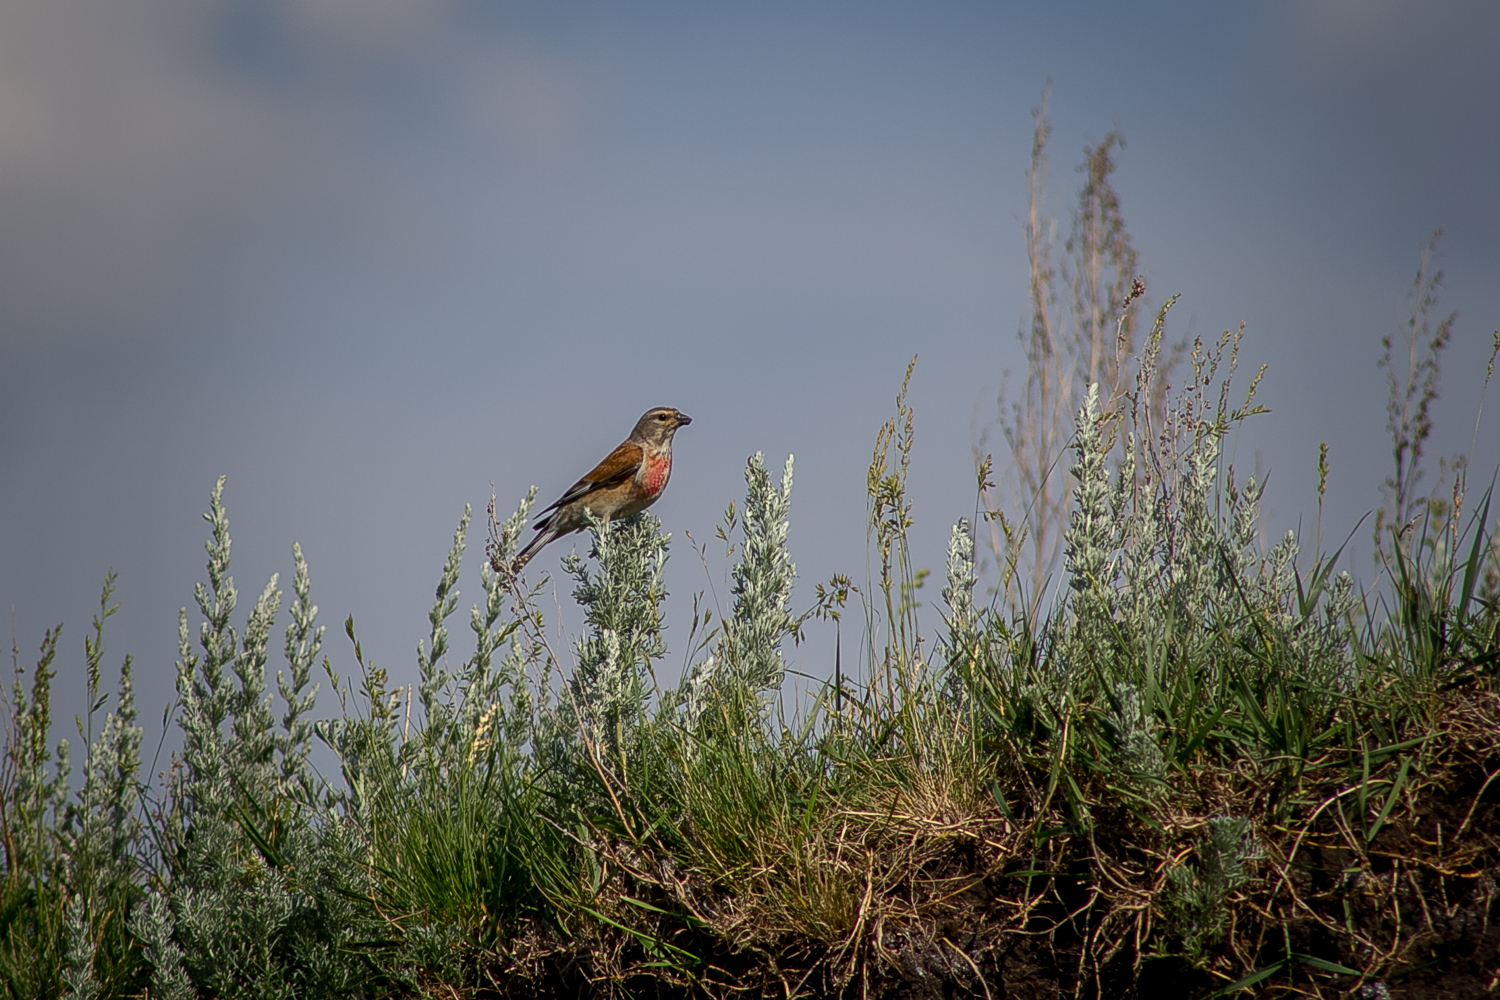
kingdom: Animalia
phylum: Chordata
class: Aves
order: Passeriformes
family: Fringillidae
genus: Linaria
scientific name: Linaria cannabina
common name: Common linnet
